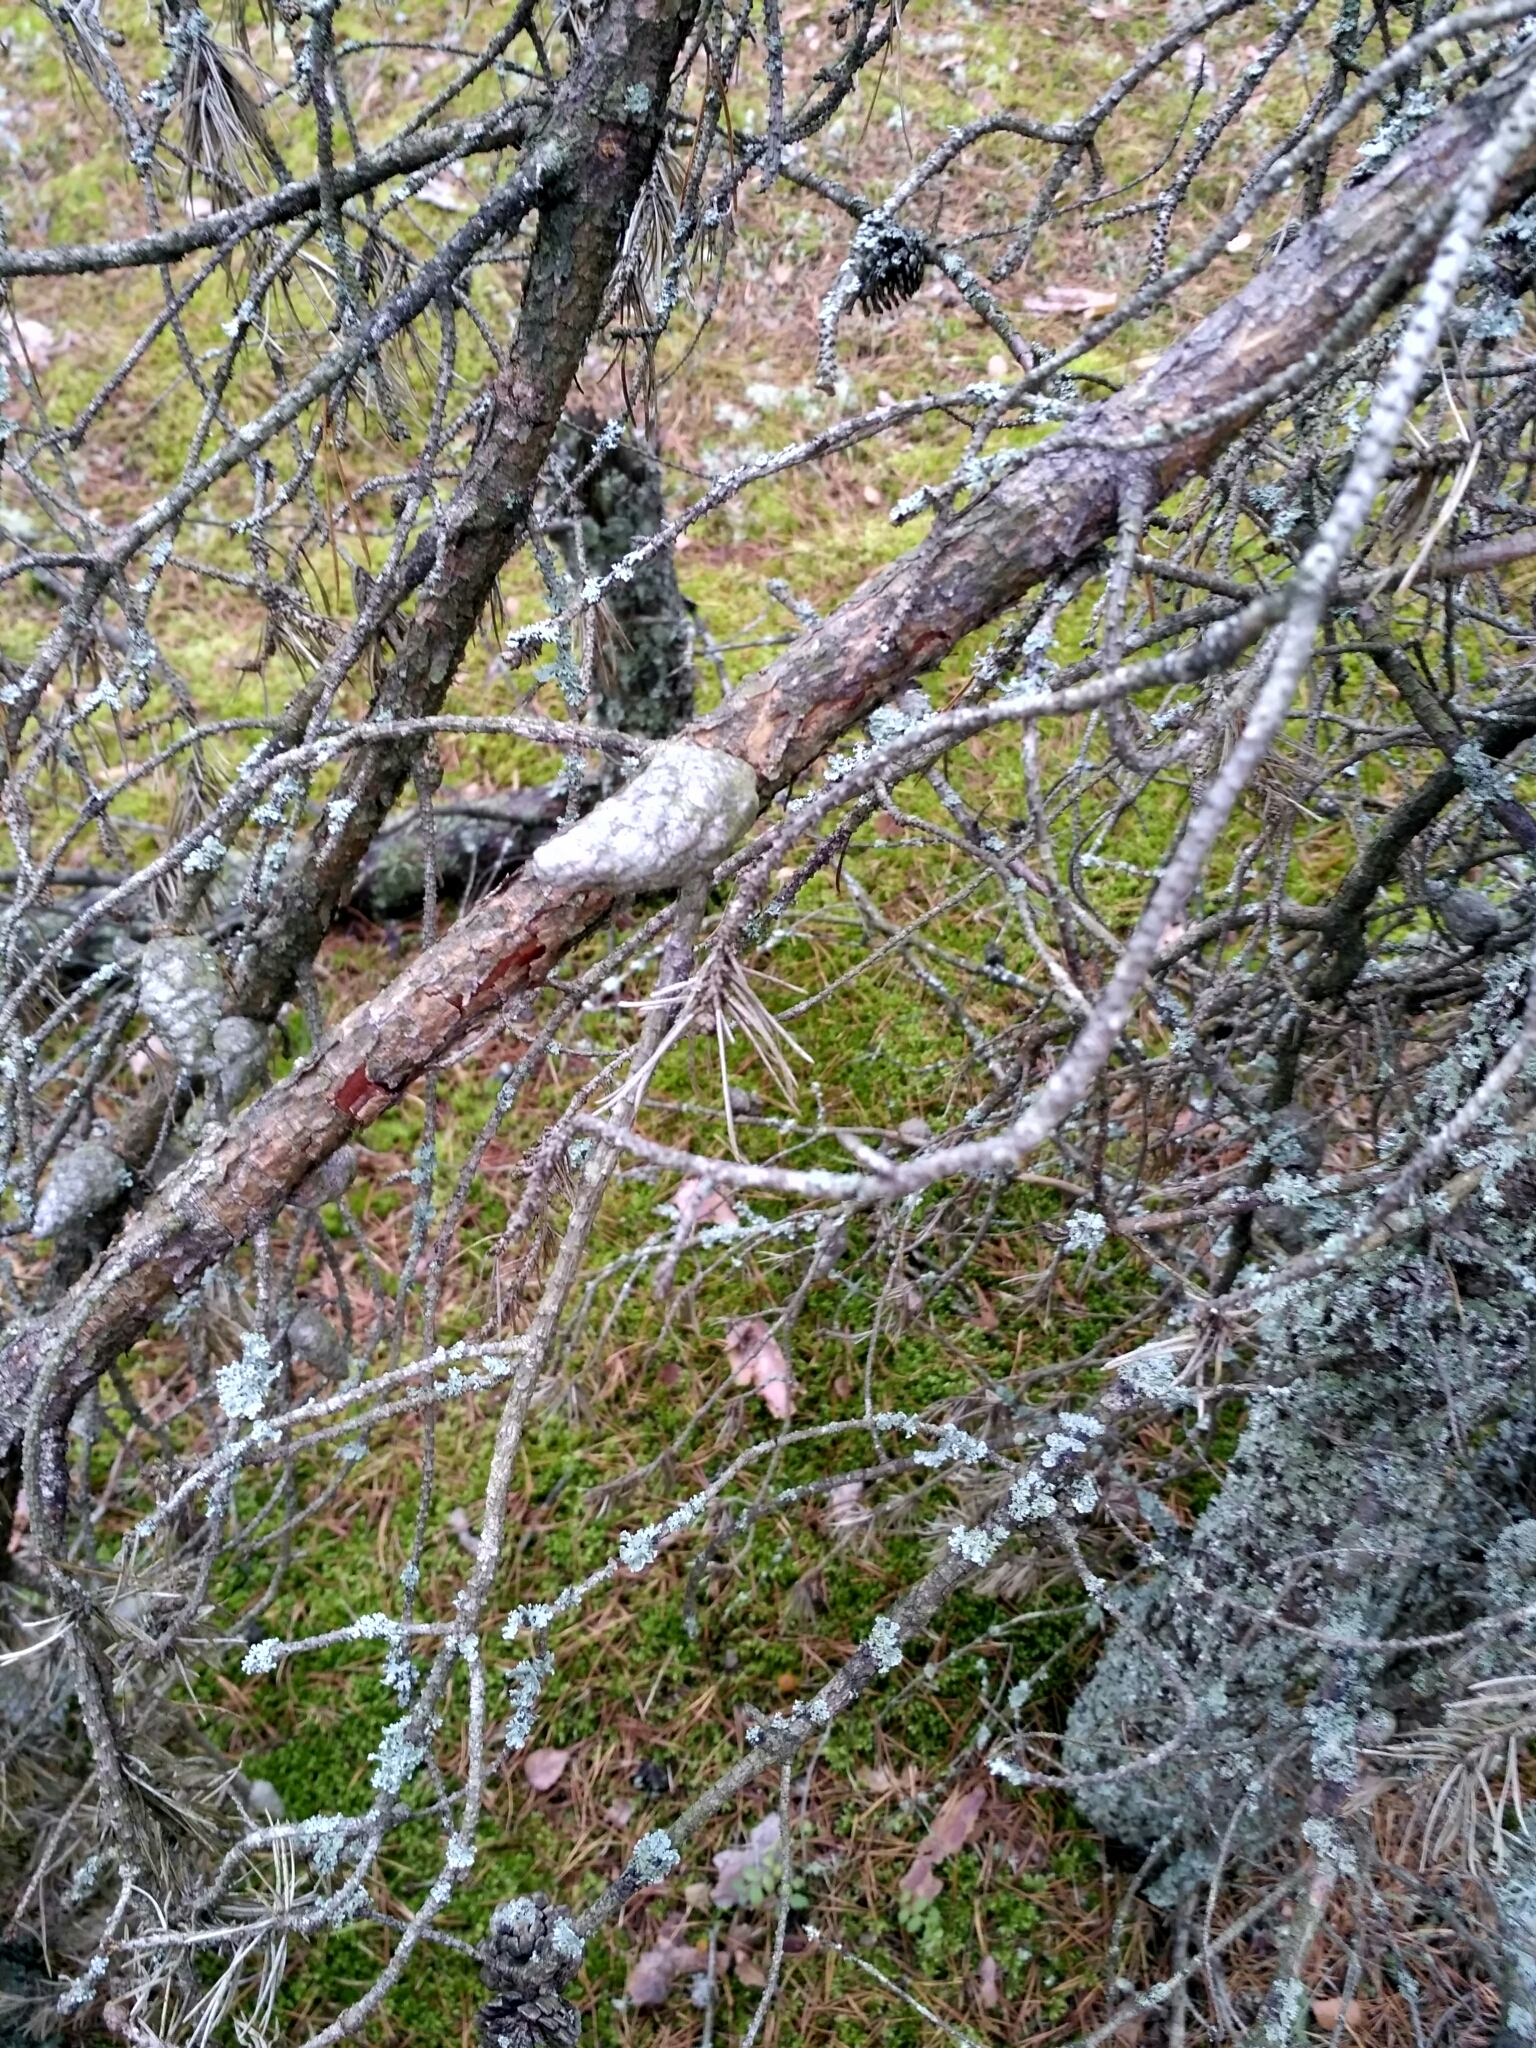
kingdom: Plantae
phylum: Tracheophyta
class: Pinopsida
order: Pinales
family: Pinaceae
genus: Pinus
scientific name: Pinus banksiana
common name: Jack pine
